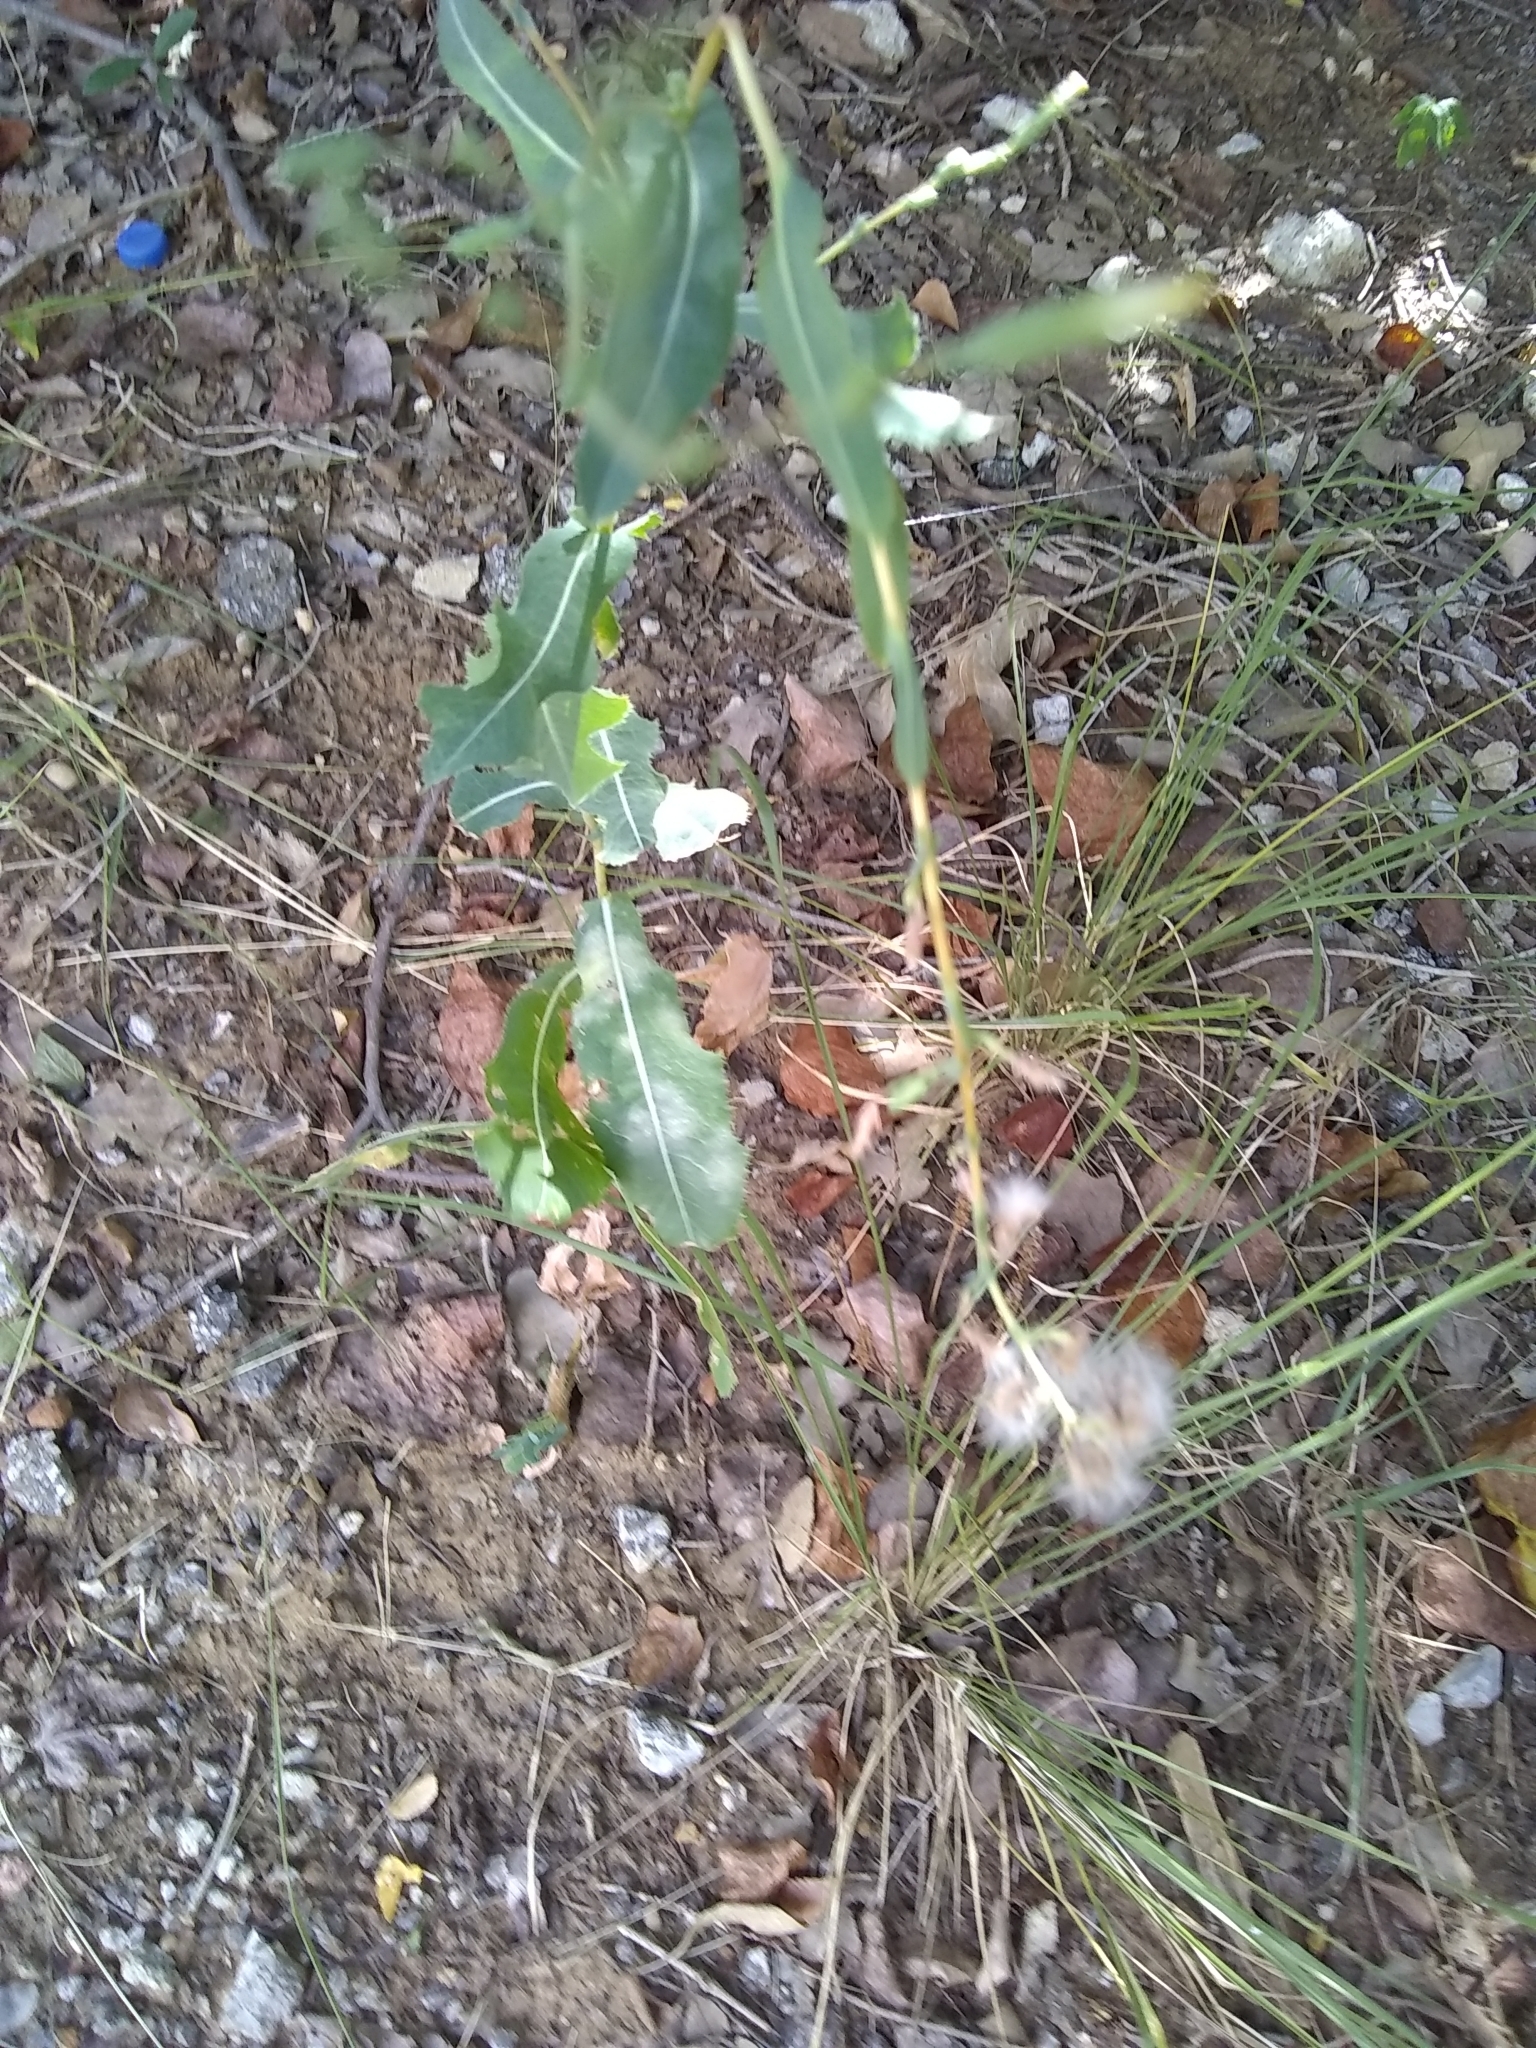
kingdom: Plantae
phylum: Tracheophyta
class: Magnoliopsida
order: Asterales
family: Asteraceae
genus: Lactuca
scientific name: Lactuca serriola
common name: Prickly lettuce
